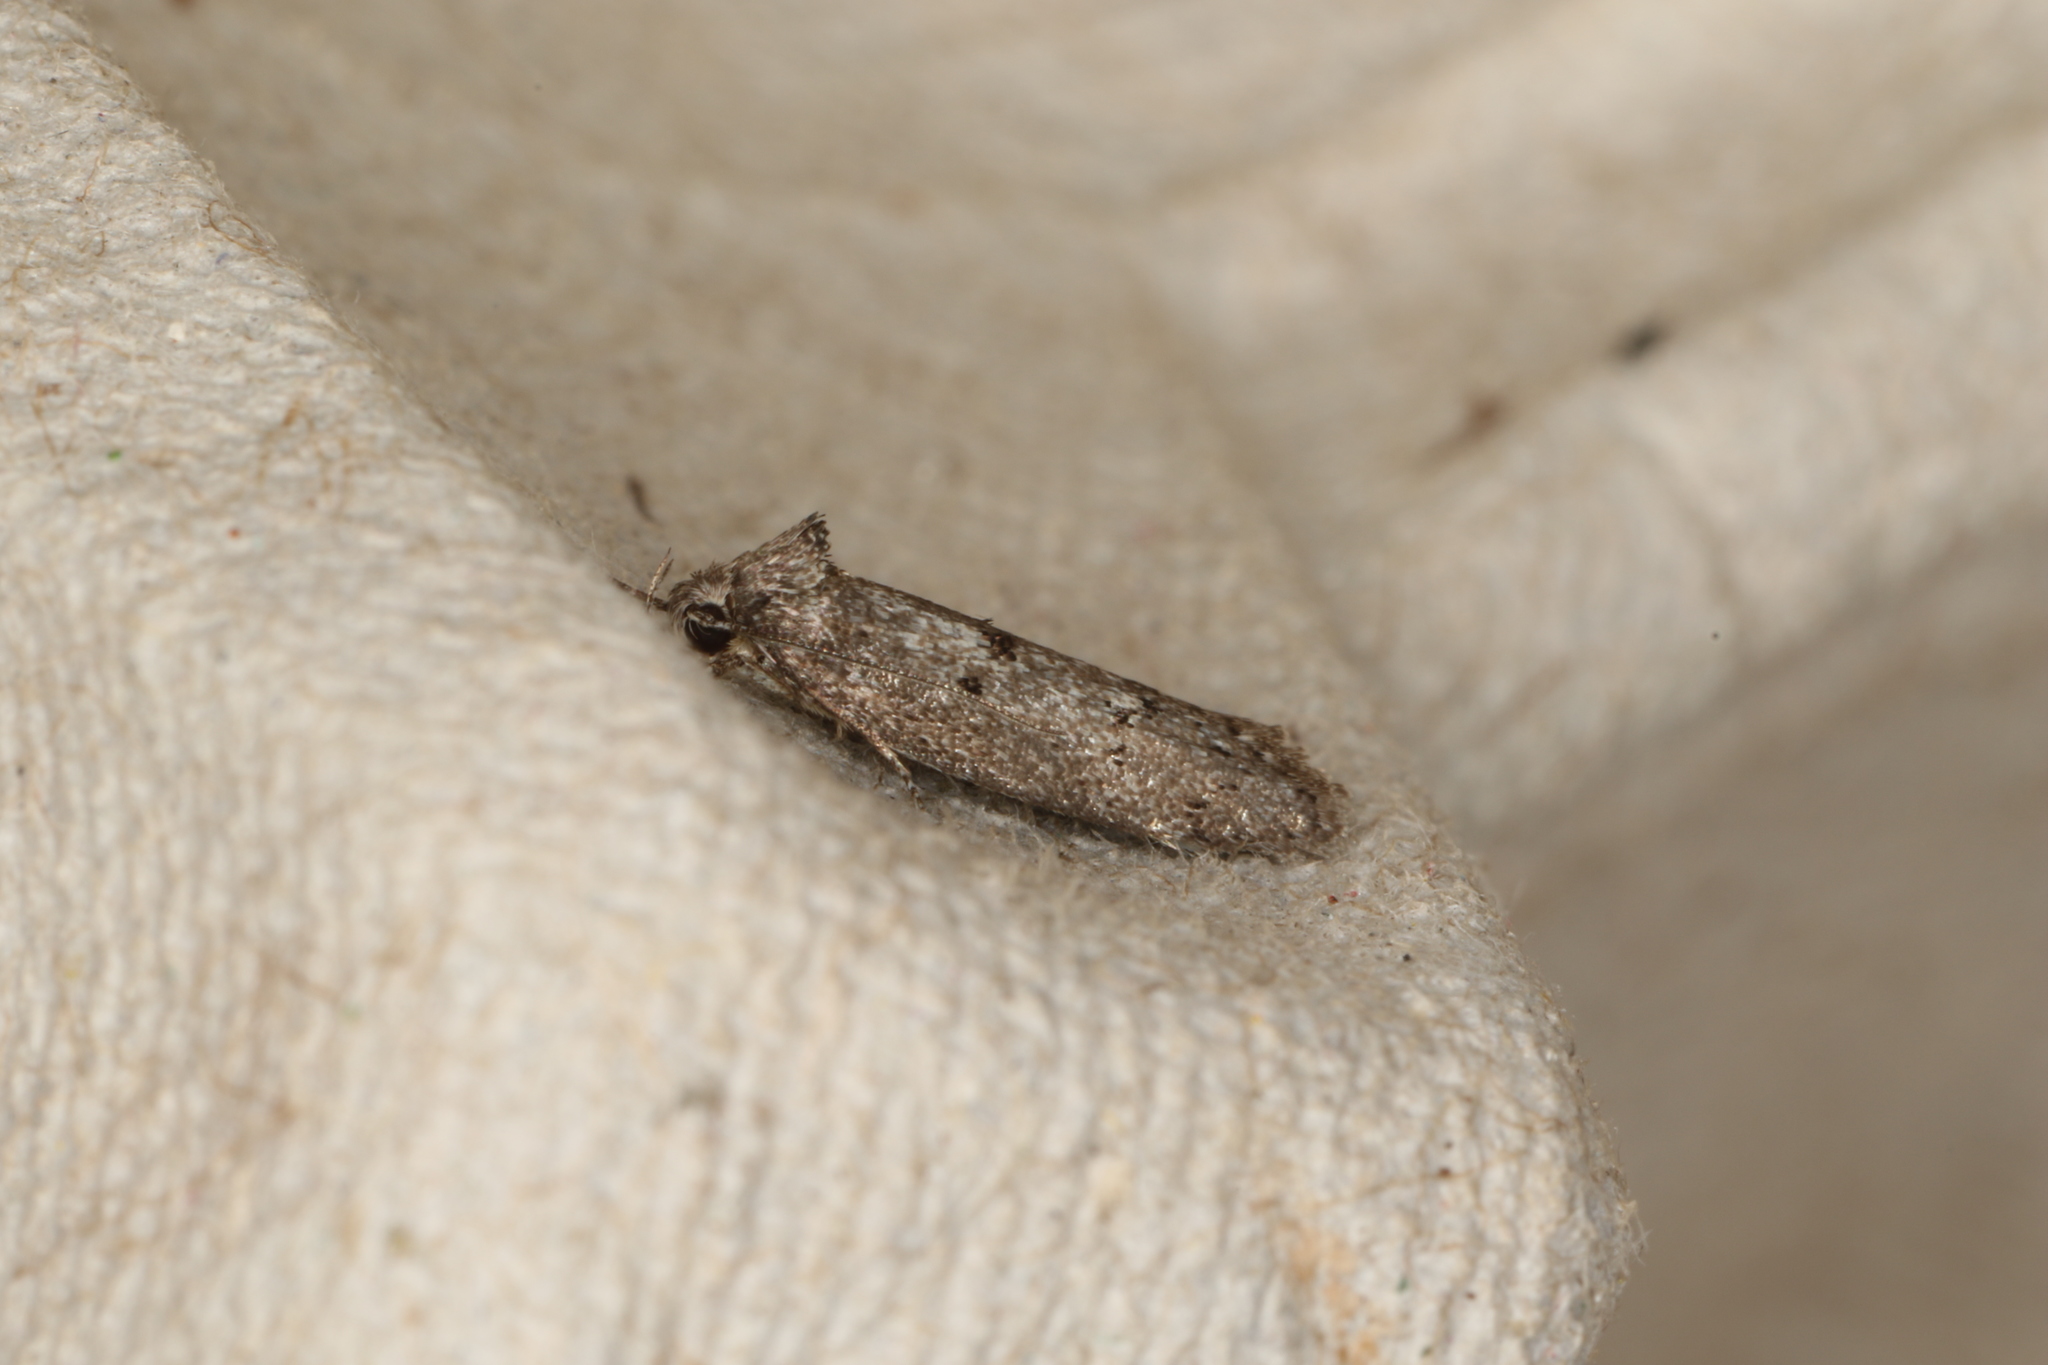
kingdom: Animalia
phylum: Arthropoda
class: Insecta
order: Lepidoptera
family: Oecophoridae
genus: Heterozyga
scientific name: Heterozyga coppatias
